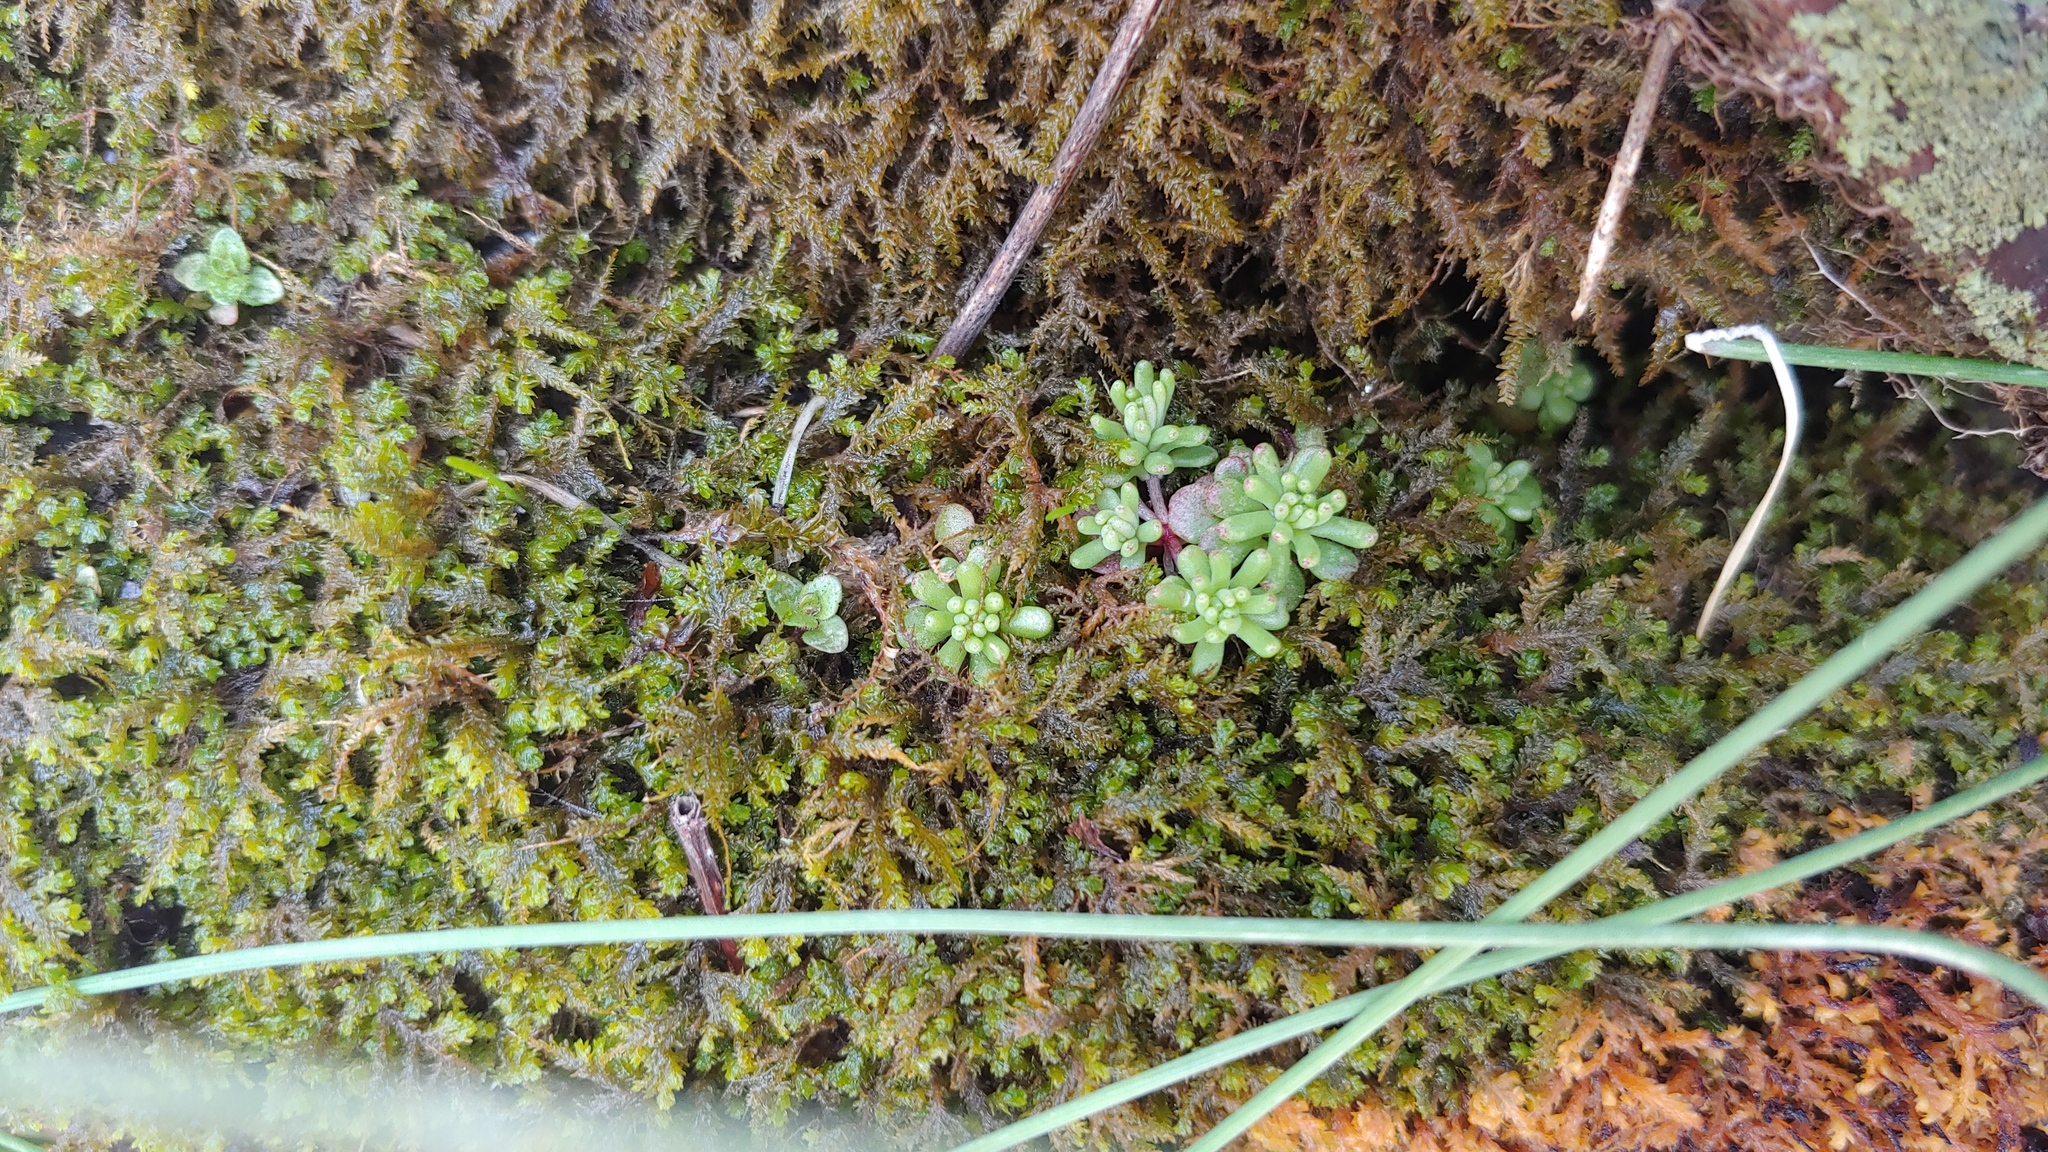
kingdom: Plantae
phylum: Tracheophyta
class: Magnoliopsida
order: Saxifragales
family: Crassulaceae
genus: Sedum
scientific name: Sedum pulchellum
